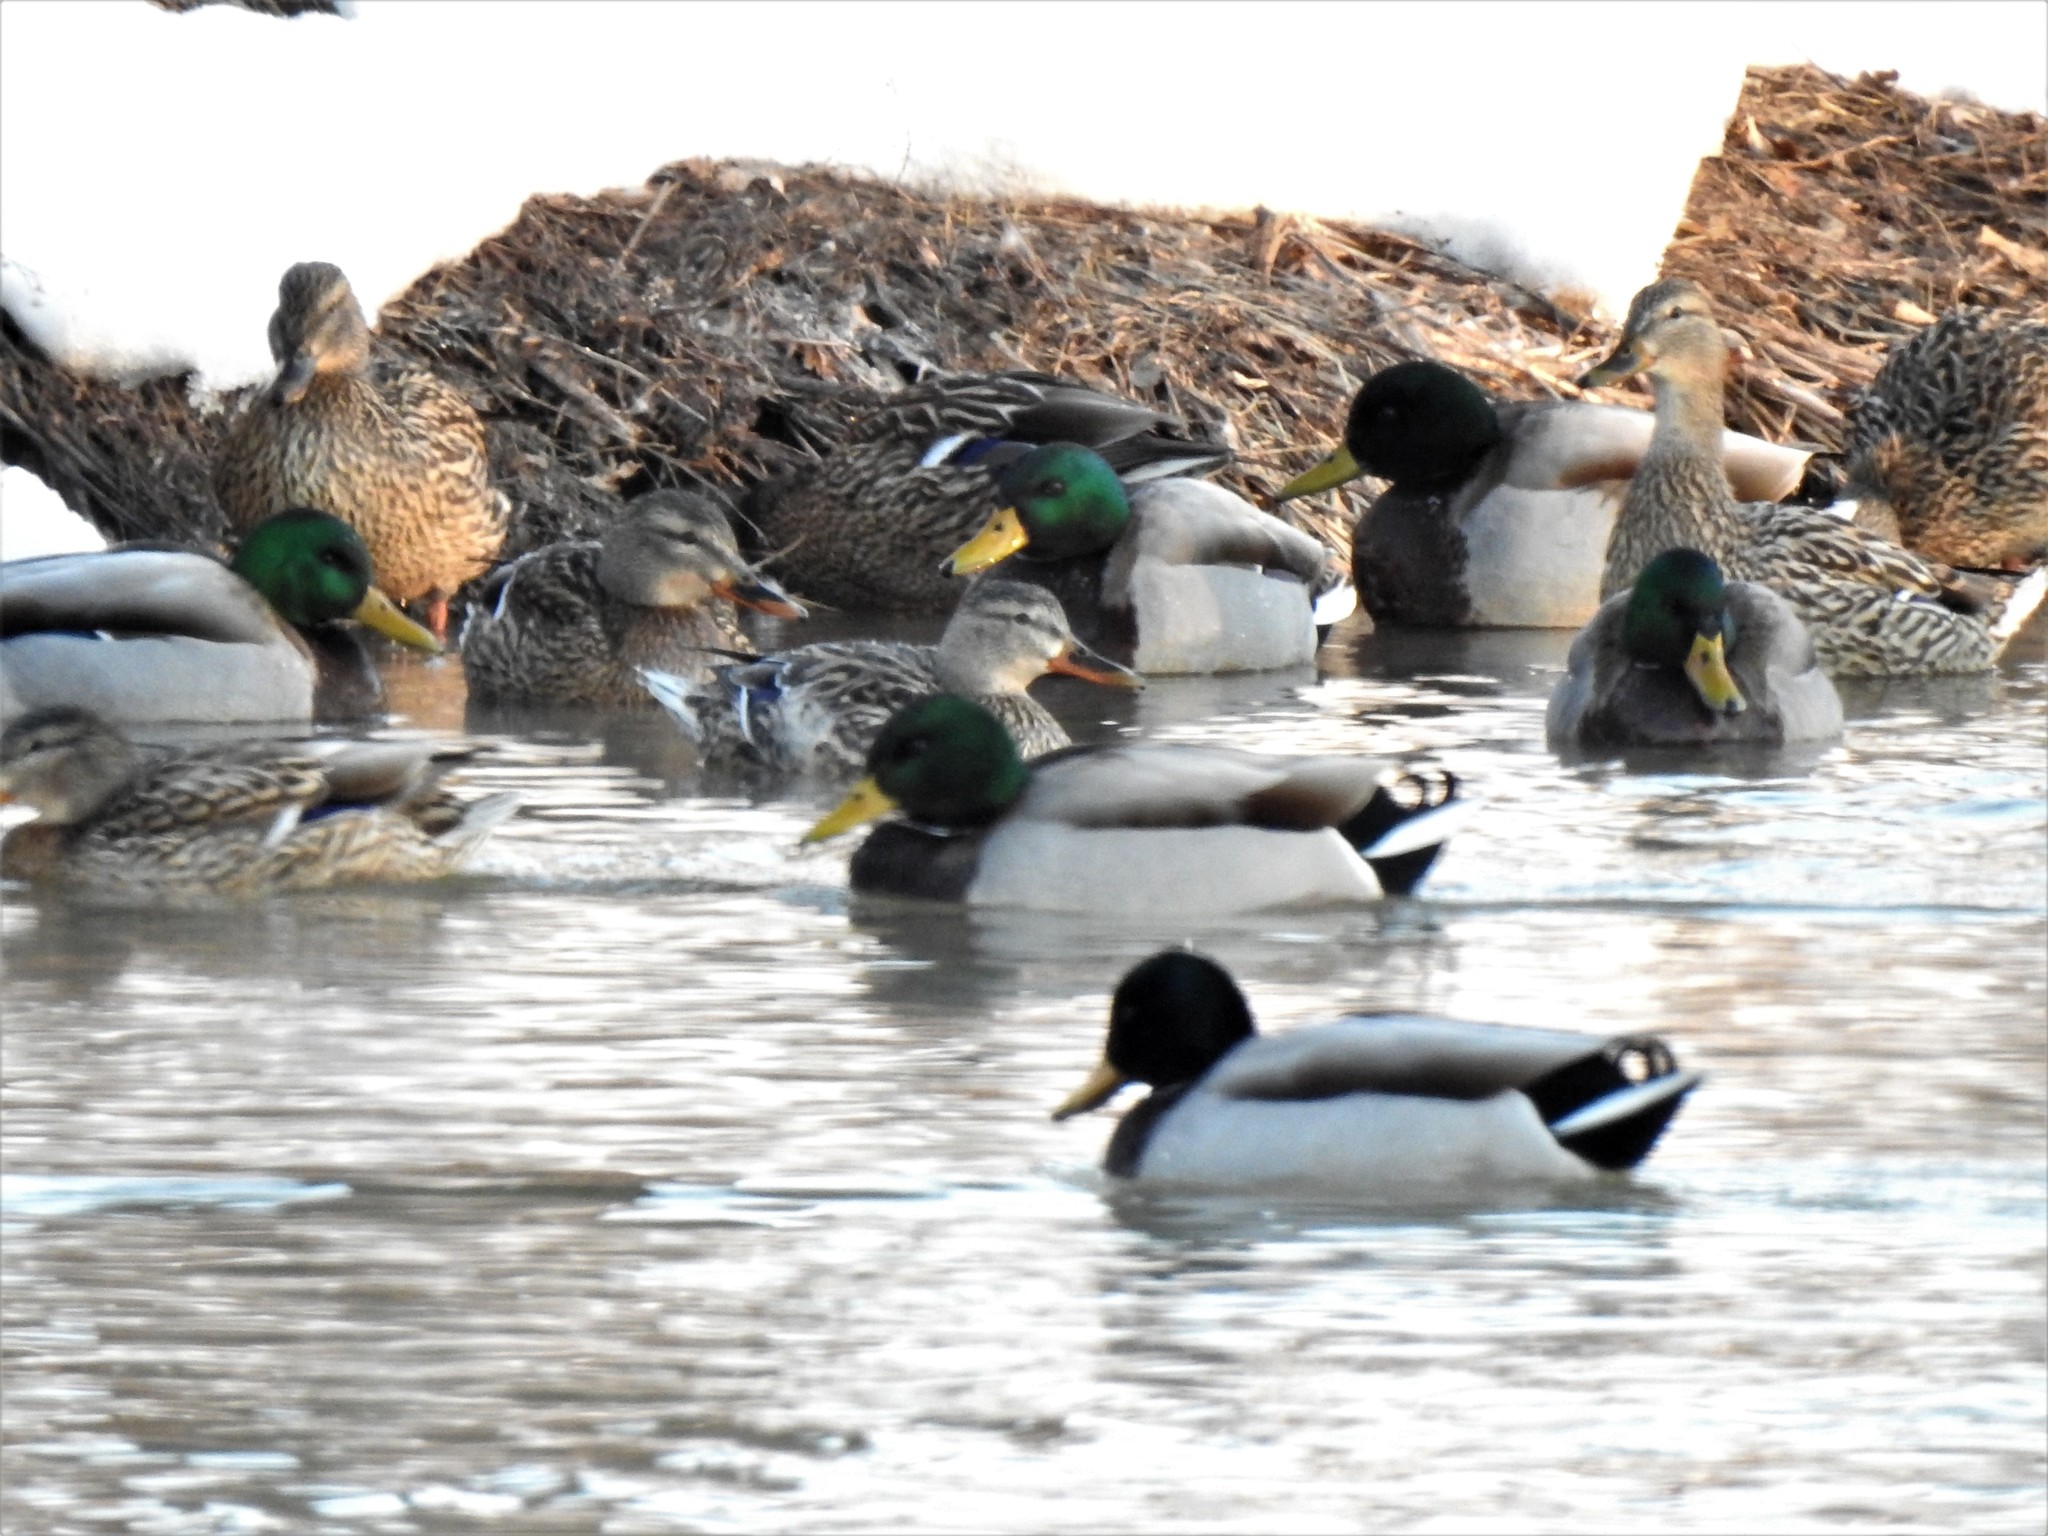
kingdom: Animalia
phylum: Chordata
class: Aves
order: Anseriformes
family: Anatidae
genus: Anas
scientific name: Anas platyrhynchos
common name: Mallard
